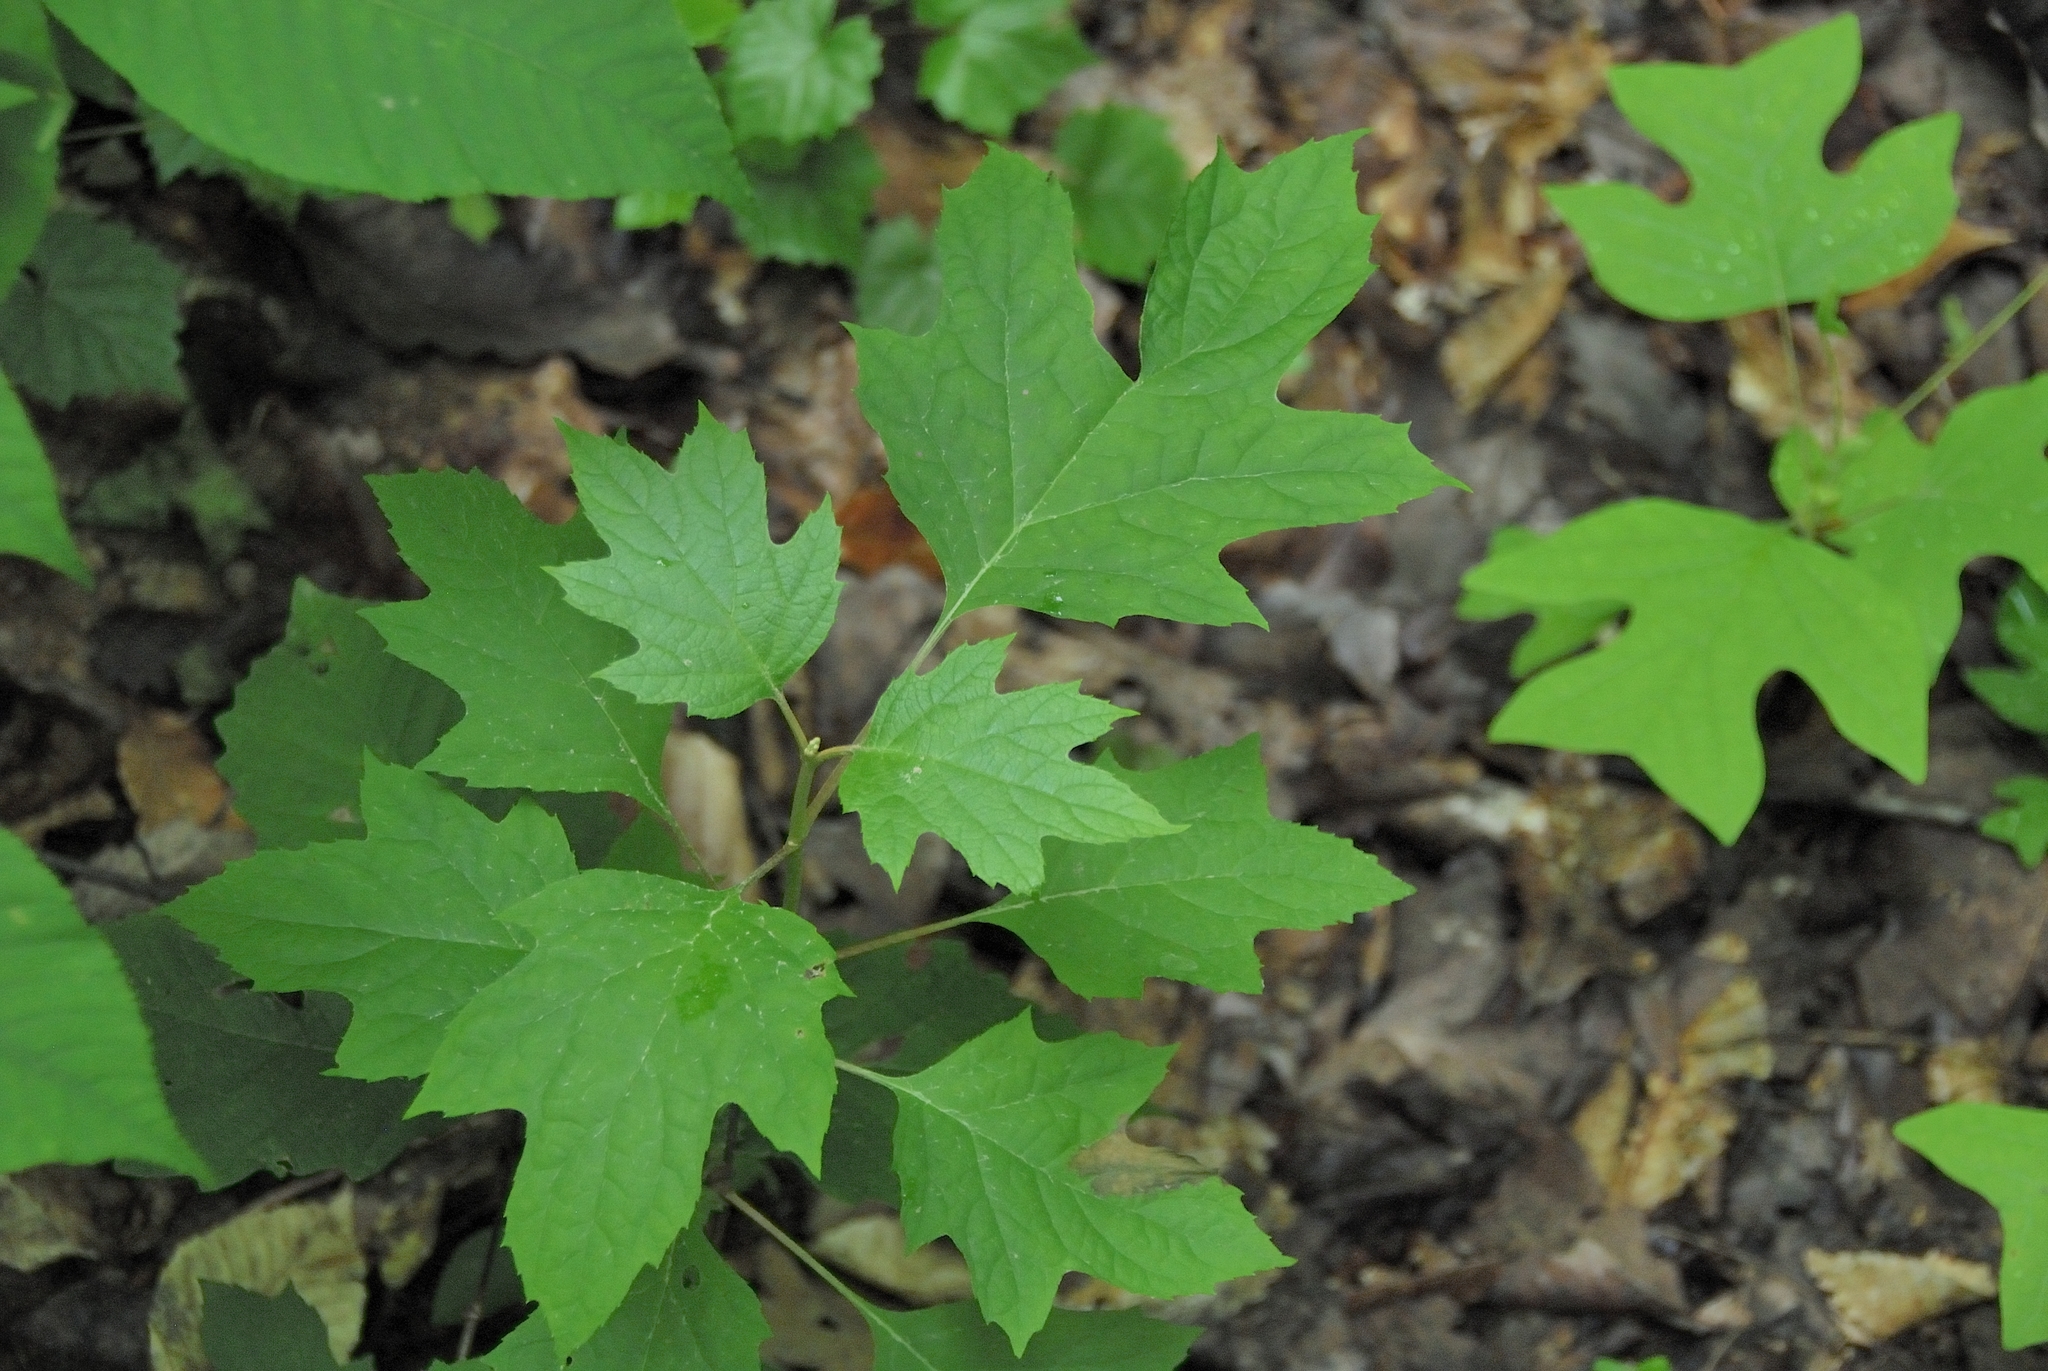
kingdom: Plantae
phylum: Tracheophyta
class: Magnoliopsida
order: Cornales
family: Hydrangeaceae
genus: Hydrangea
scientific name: Hydrangea quercifolia
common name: Oak-leaf hydrangea
